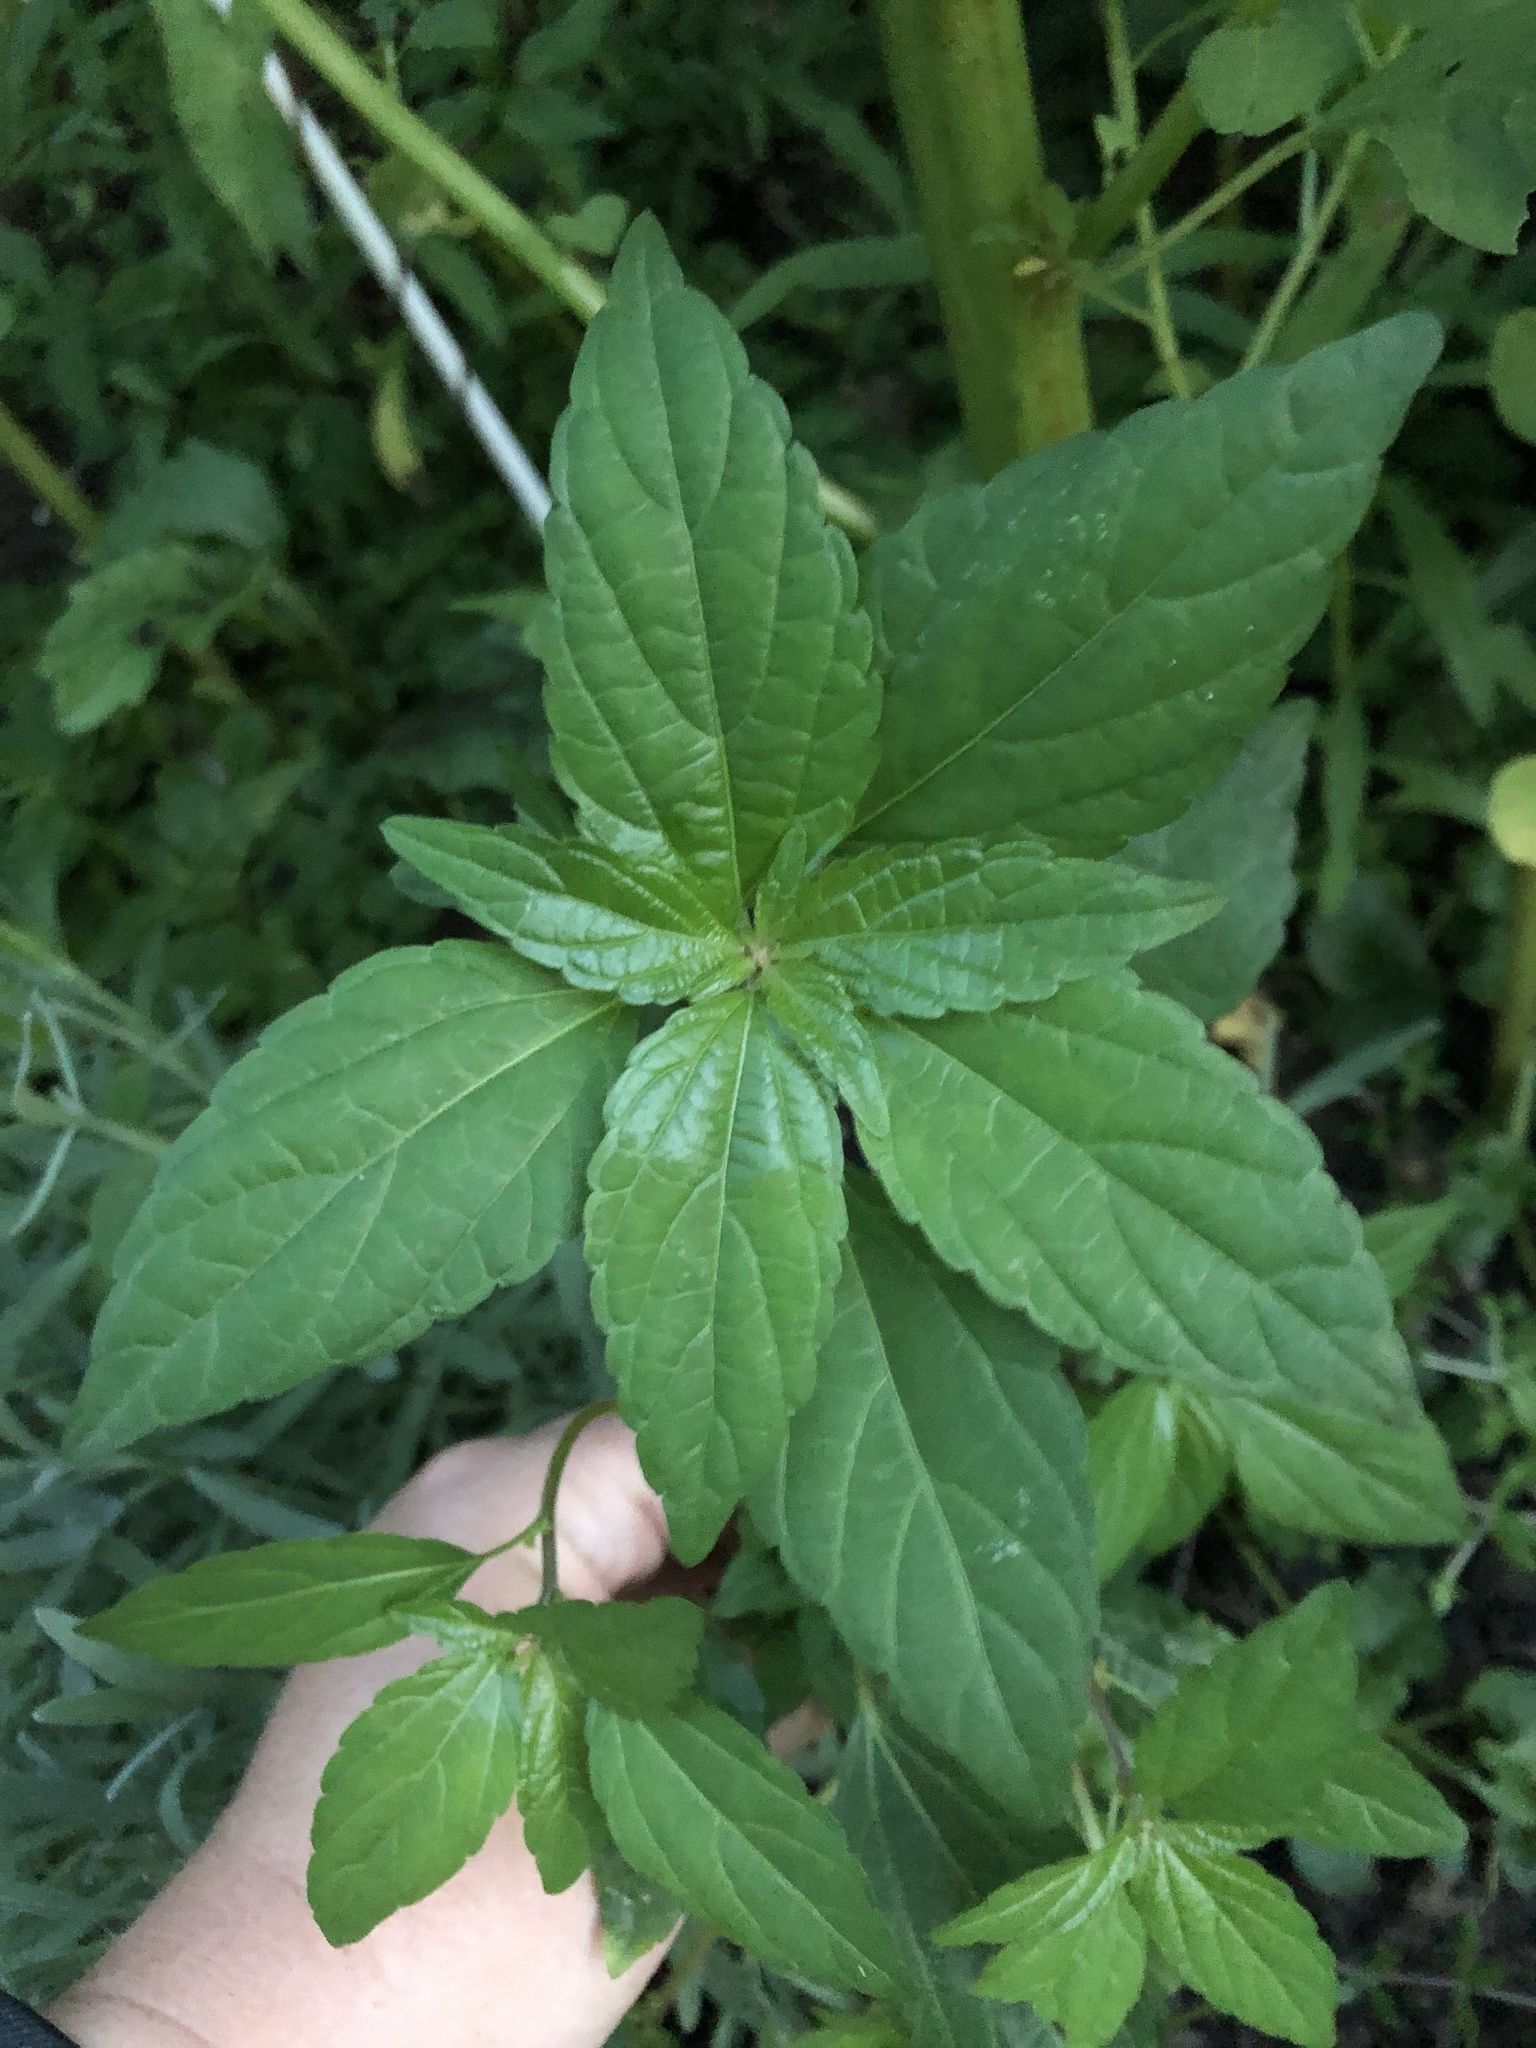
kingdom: Plantae
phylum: Tracheophyta
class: Magnoliopsida
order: Malpighiales
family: Euphorbiaceae
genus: Acalypha
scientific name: Acalypha rhomboidea
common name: Rhombic copperleaf
